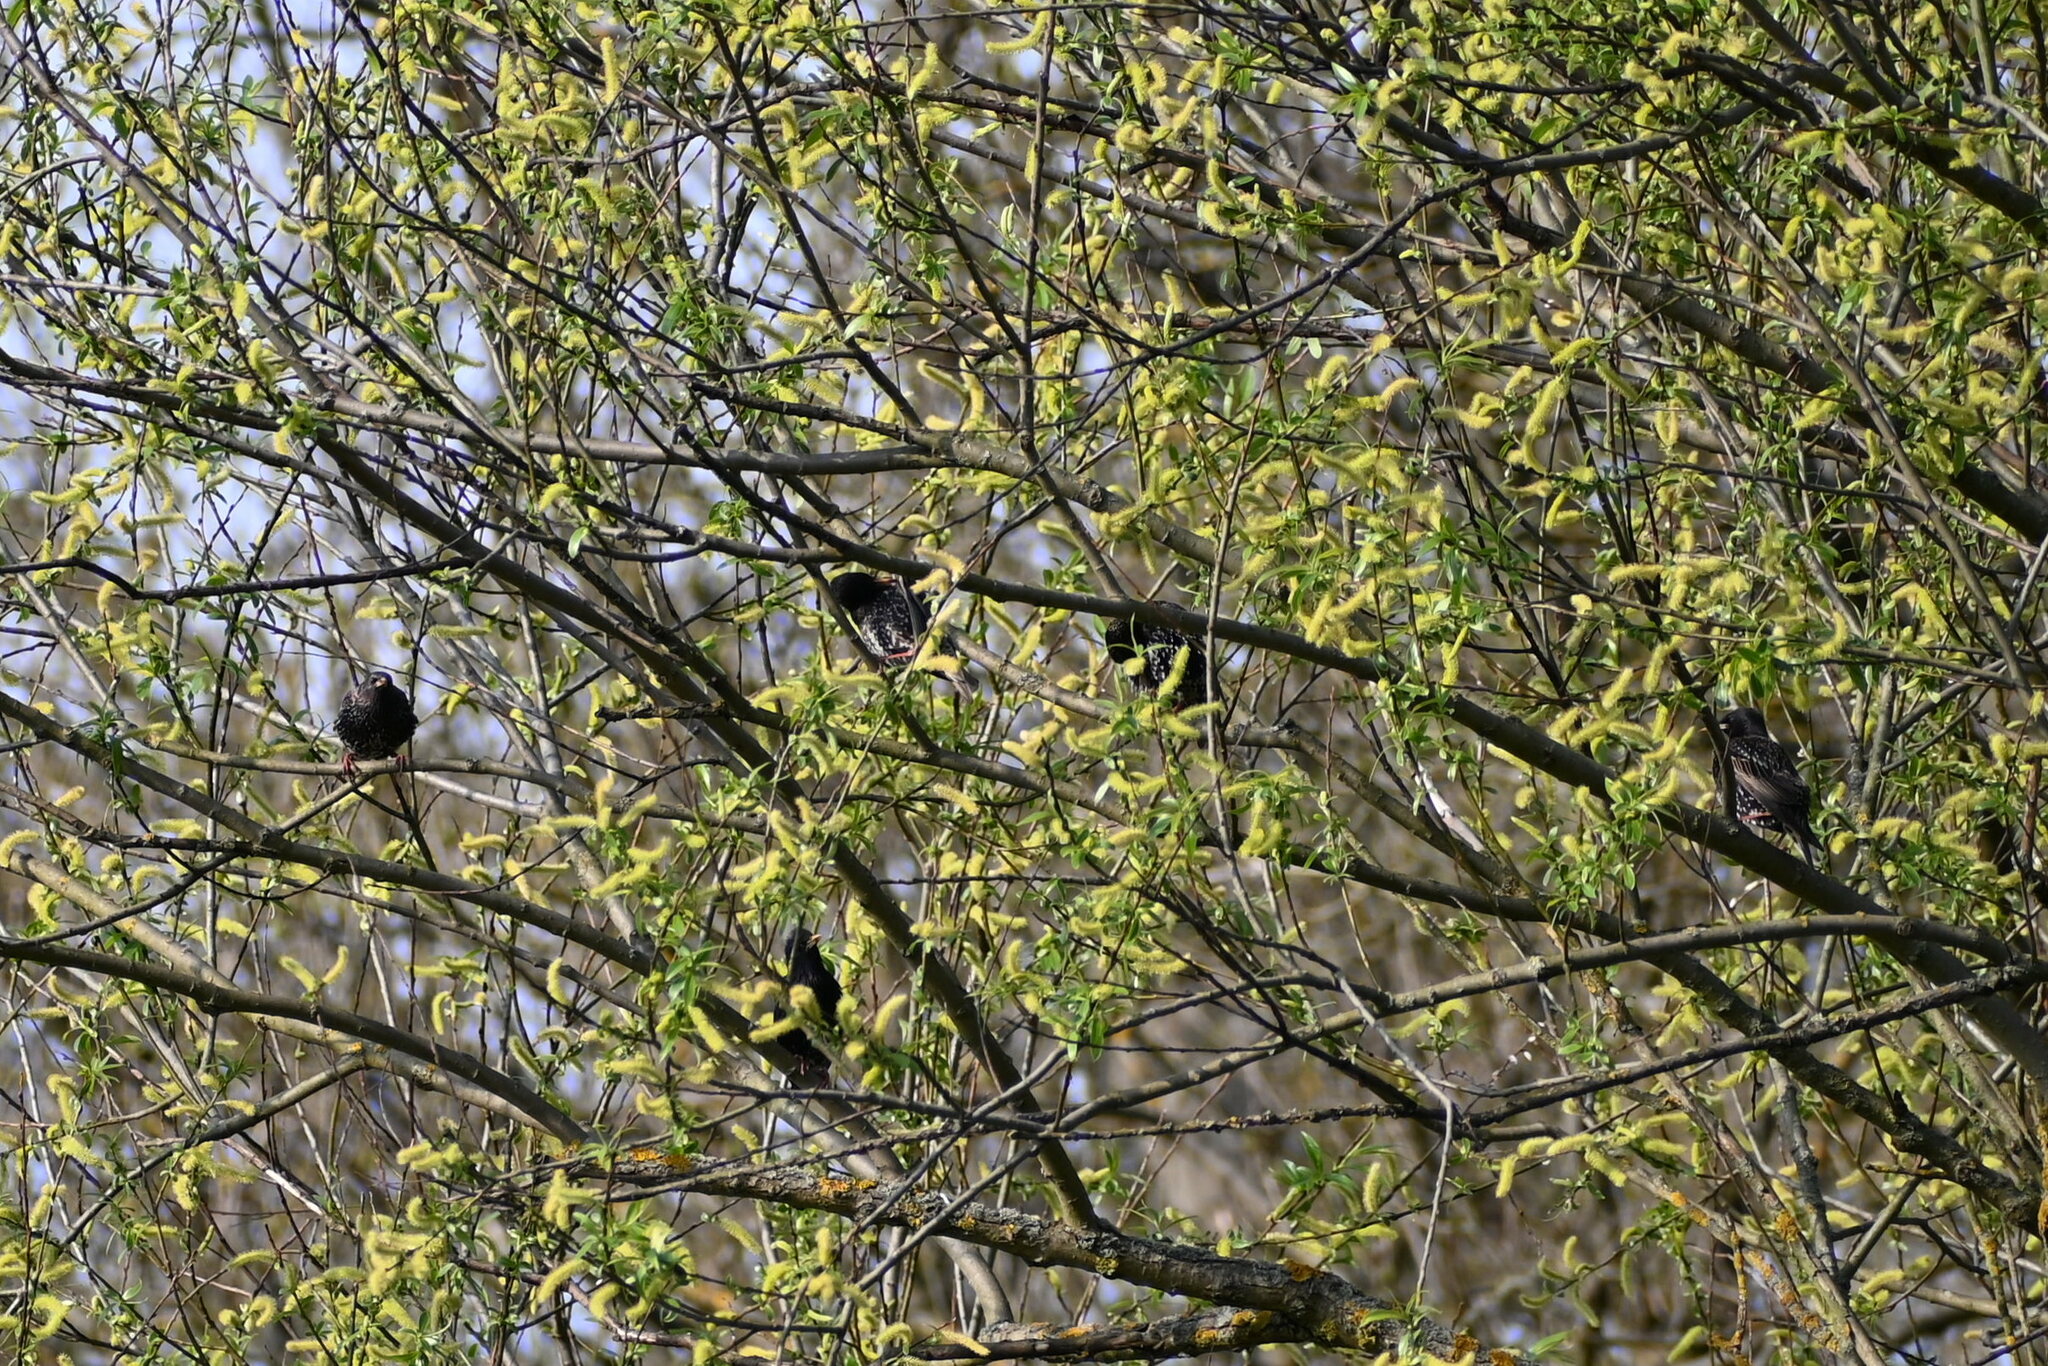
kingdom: Animalia
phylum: Chordata
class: Aves
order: Passeriformes
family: Sturnidae
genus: Sturnus
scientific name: Sturnus vulgaris
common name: Common starling
